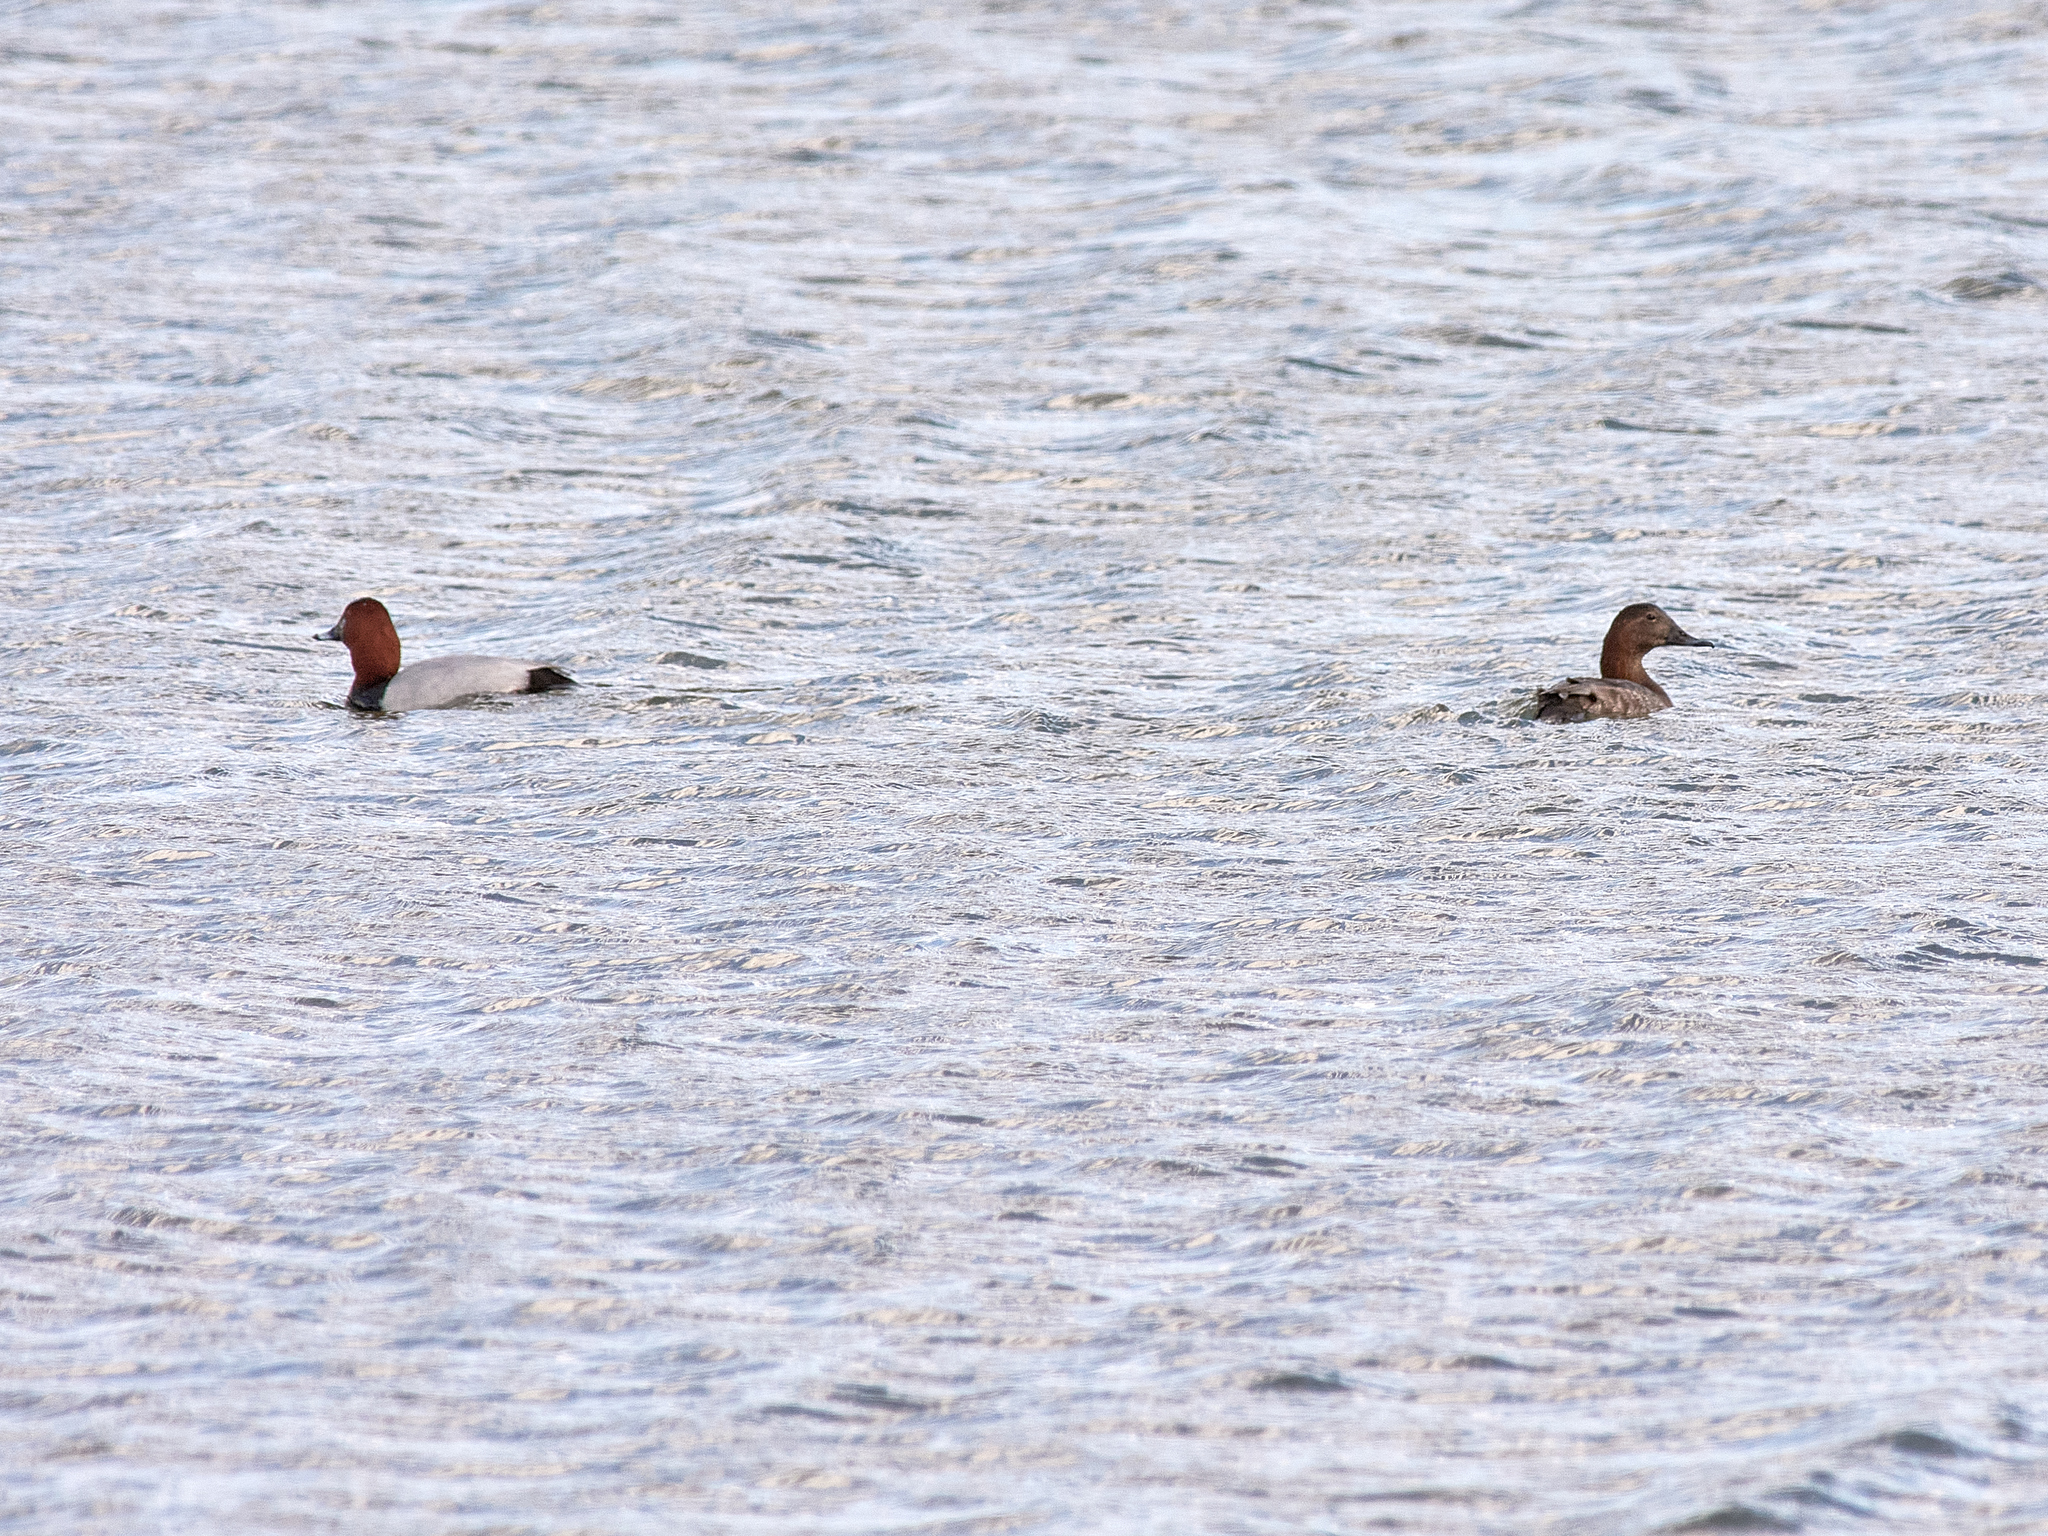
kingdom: Animalia
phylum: Chordata
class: Aves
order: Anseriformes
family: Anatidae
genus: Aythya
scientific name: Aythya ferina
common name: Common pochard
